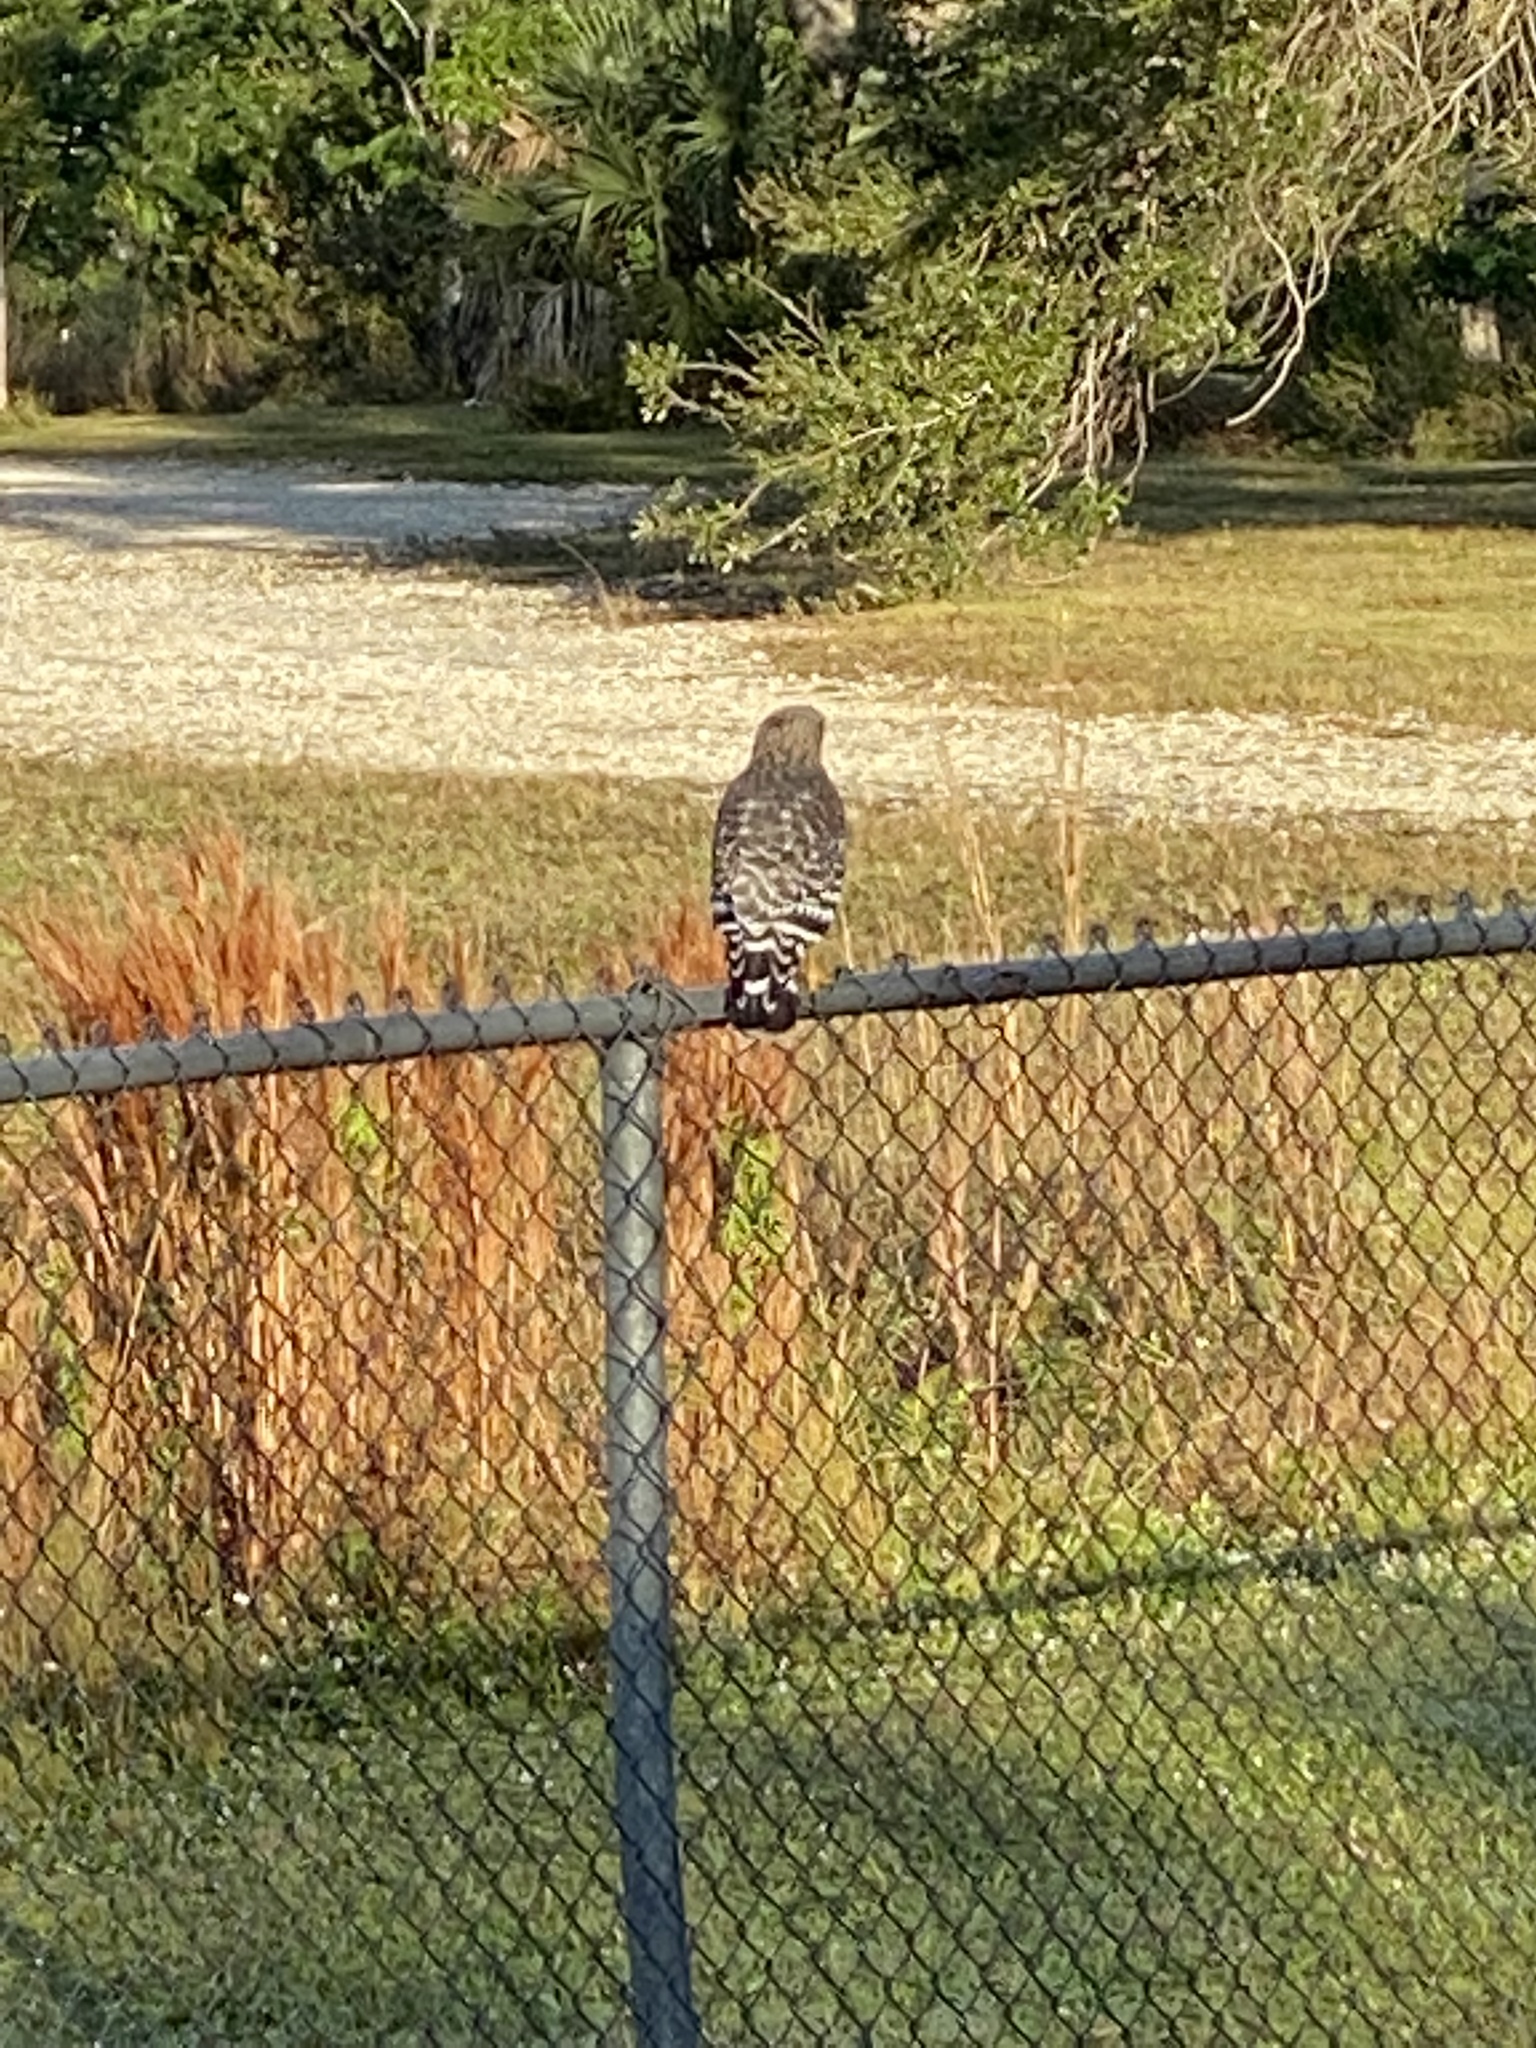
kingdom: Animalia
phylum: Chordata
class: Aves
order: Accipitriformes
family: Accipitridae
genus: Buteo
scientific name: Buteo lineatus
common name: Red-shouldered hawk
